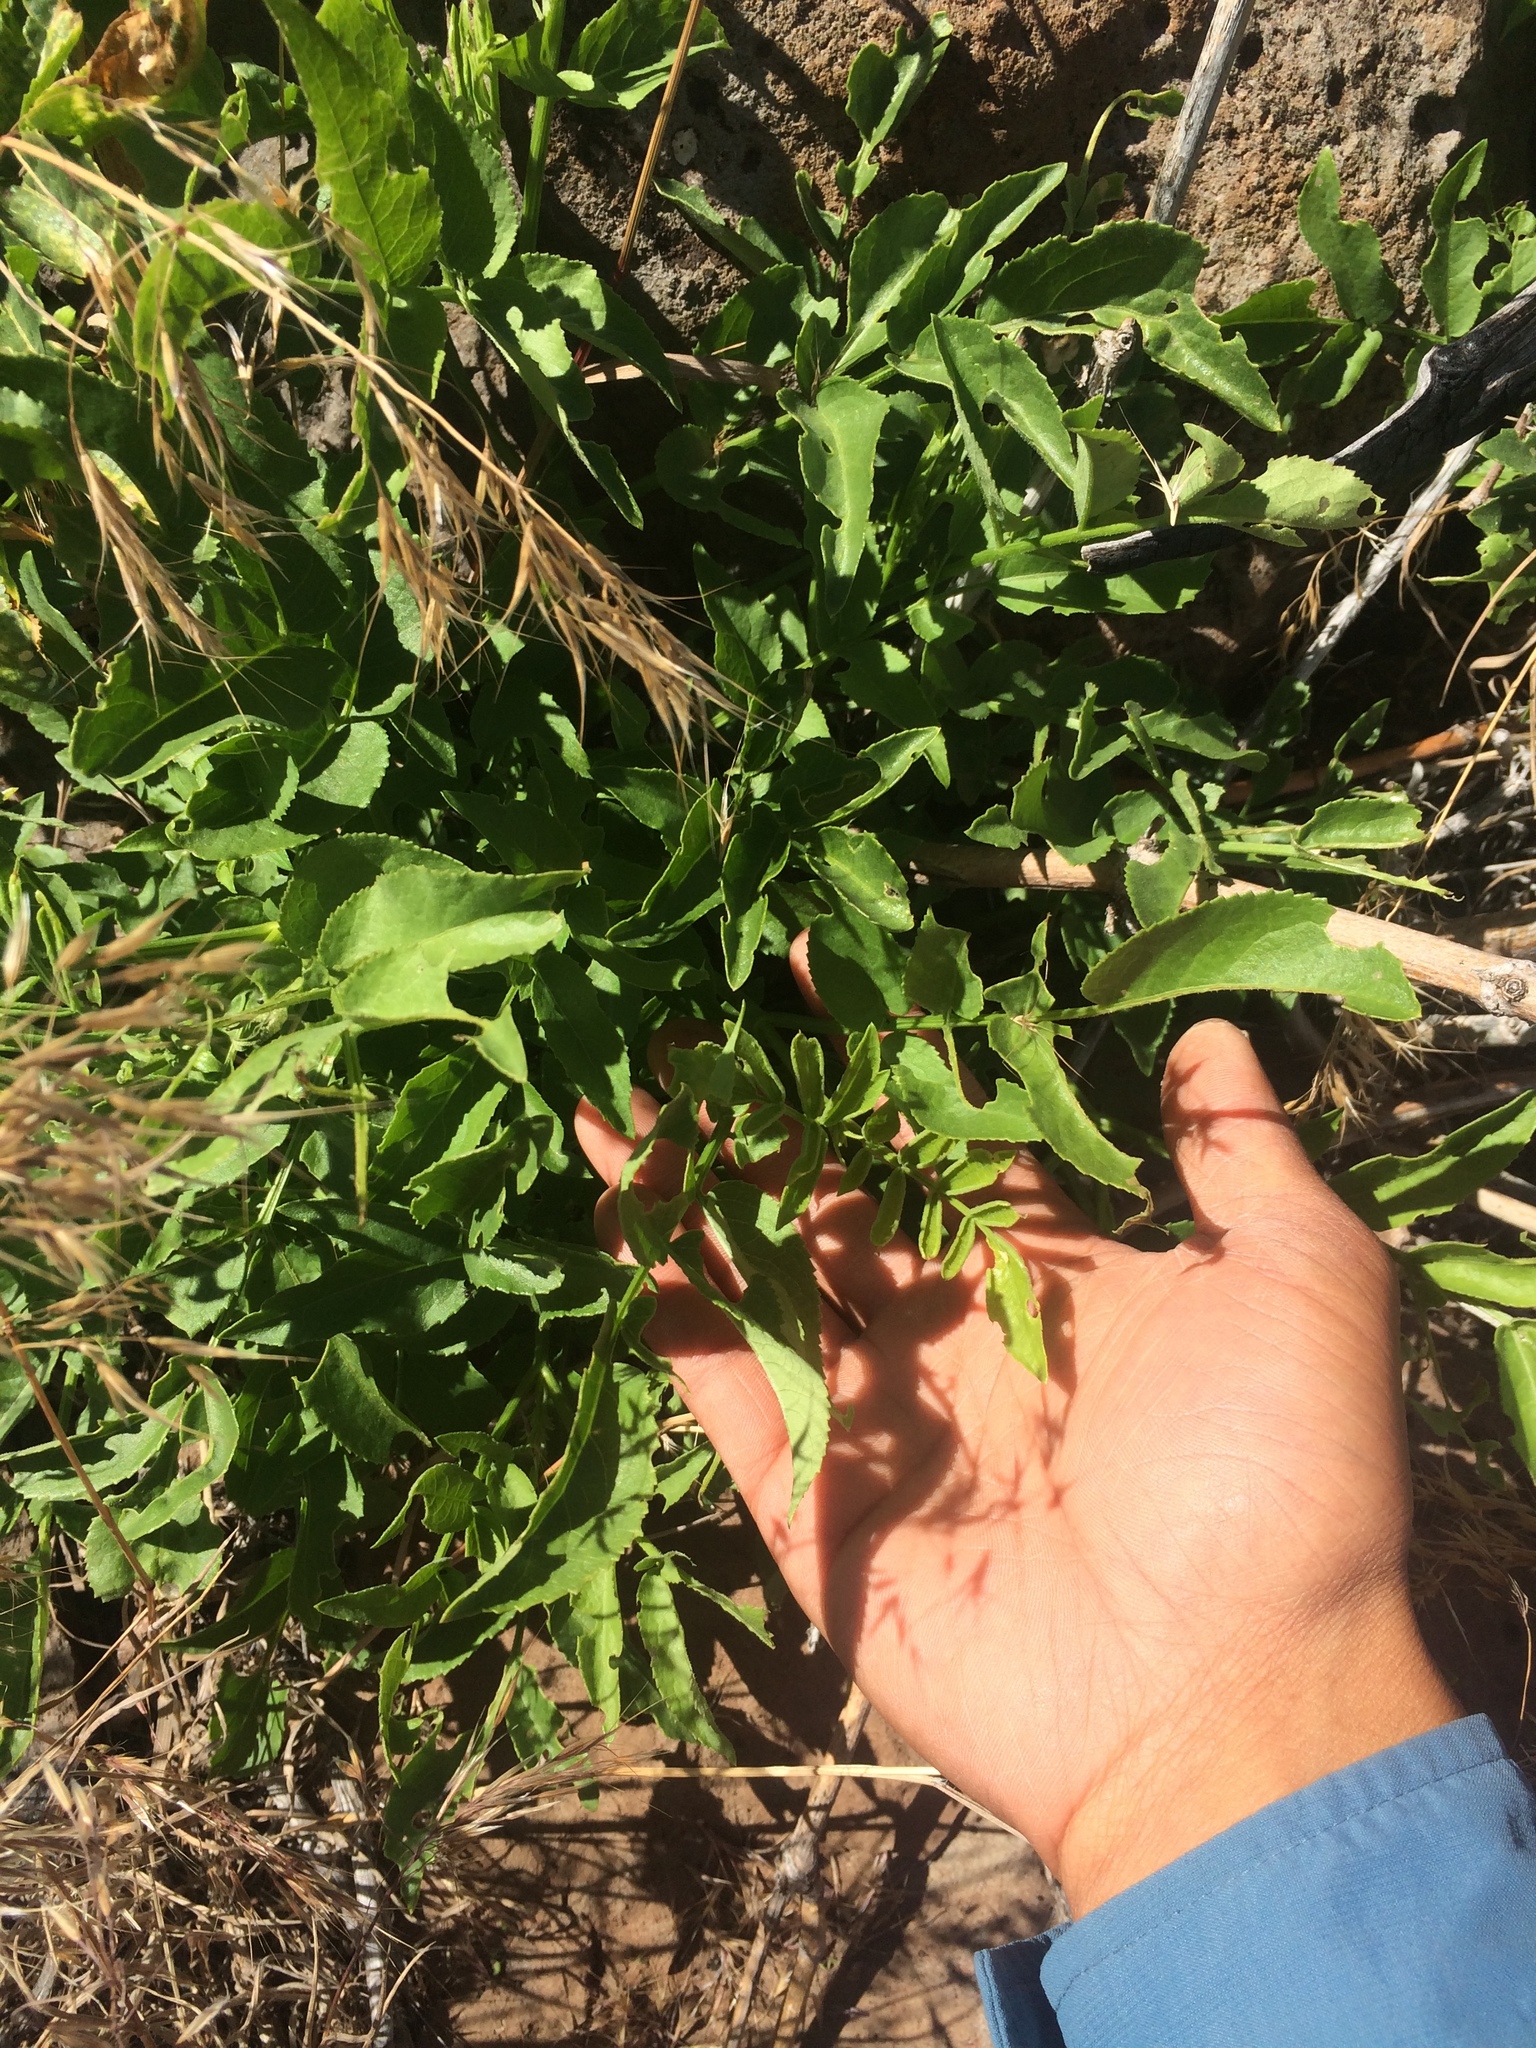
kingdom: Plantae
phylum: Tracheophyta
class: Magnoliopsida
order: Dipsacales
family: Viburnaceae
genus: Sambucus
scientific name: Sambucus cerulea
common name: Blue elder
